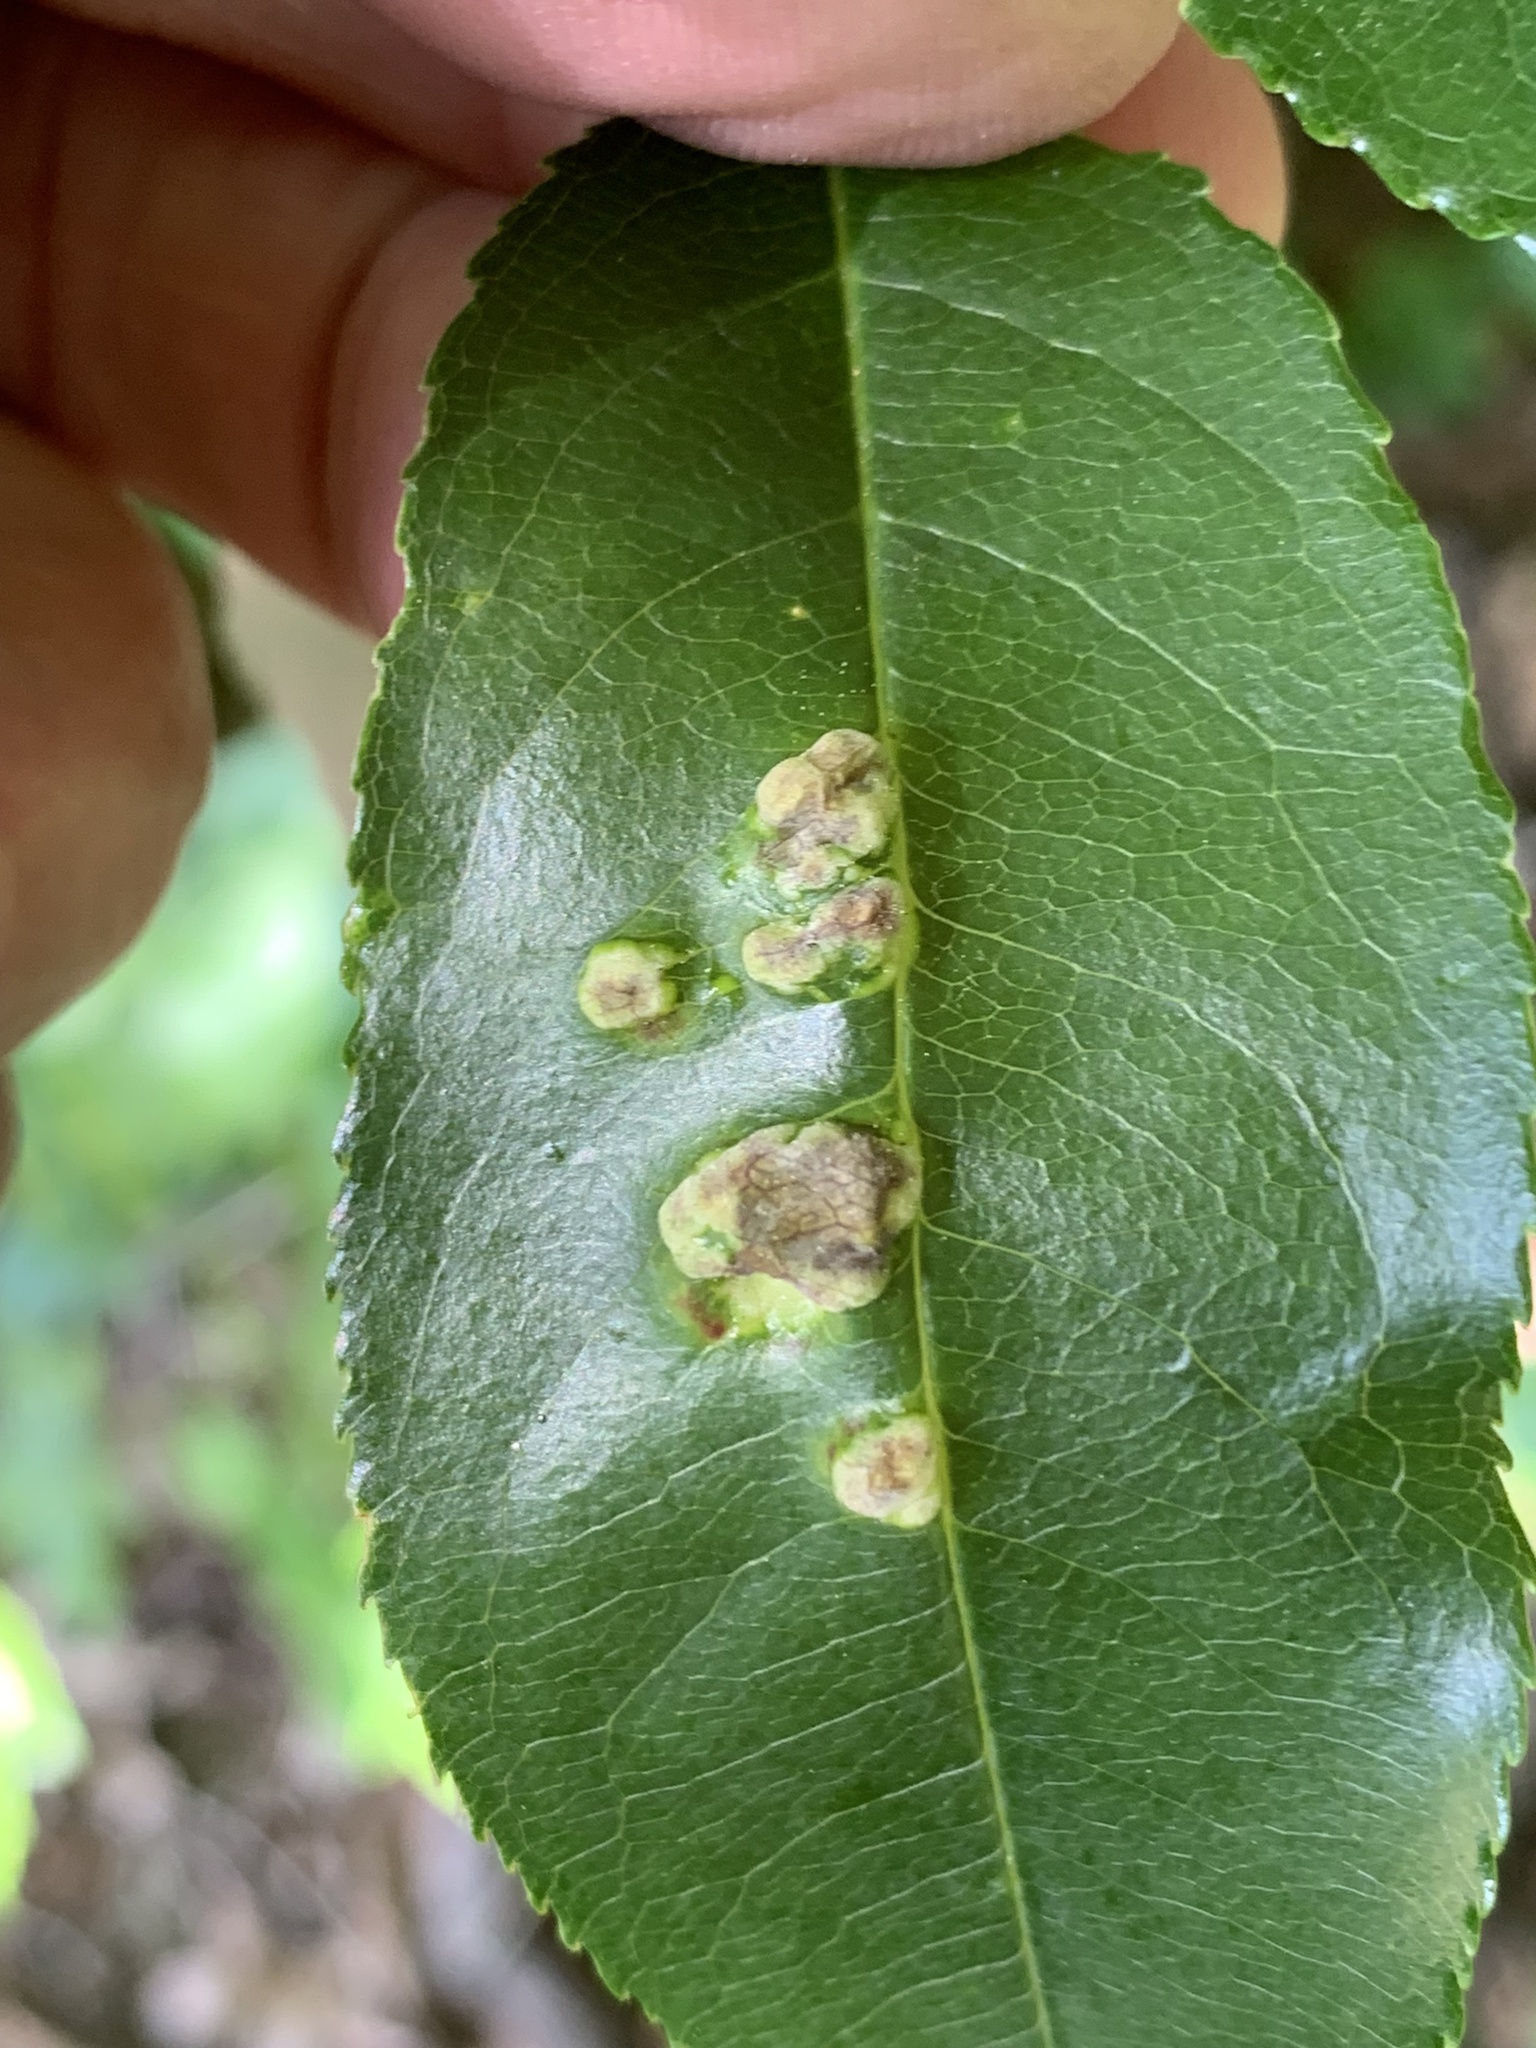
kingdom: Fungi
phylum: Ascomycota
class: Taphrinomycetes
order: Taphrinales
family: Taphrinaceae
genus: Taphrina
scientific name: Taphrina farlowii
